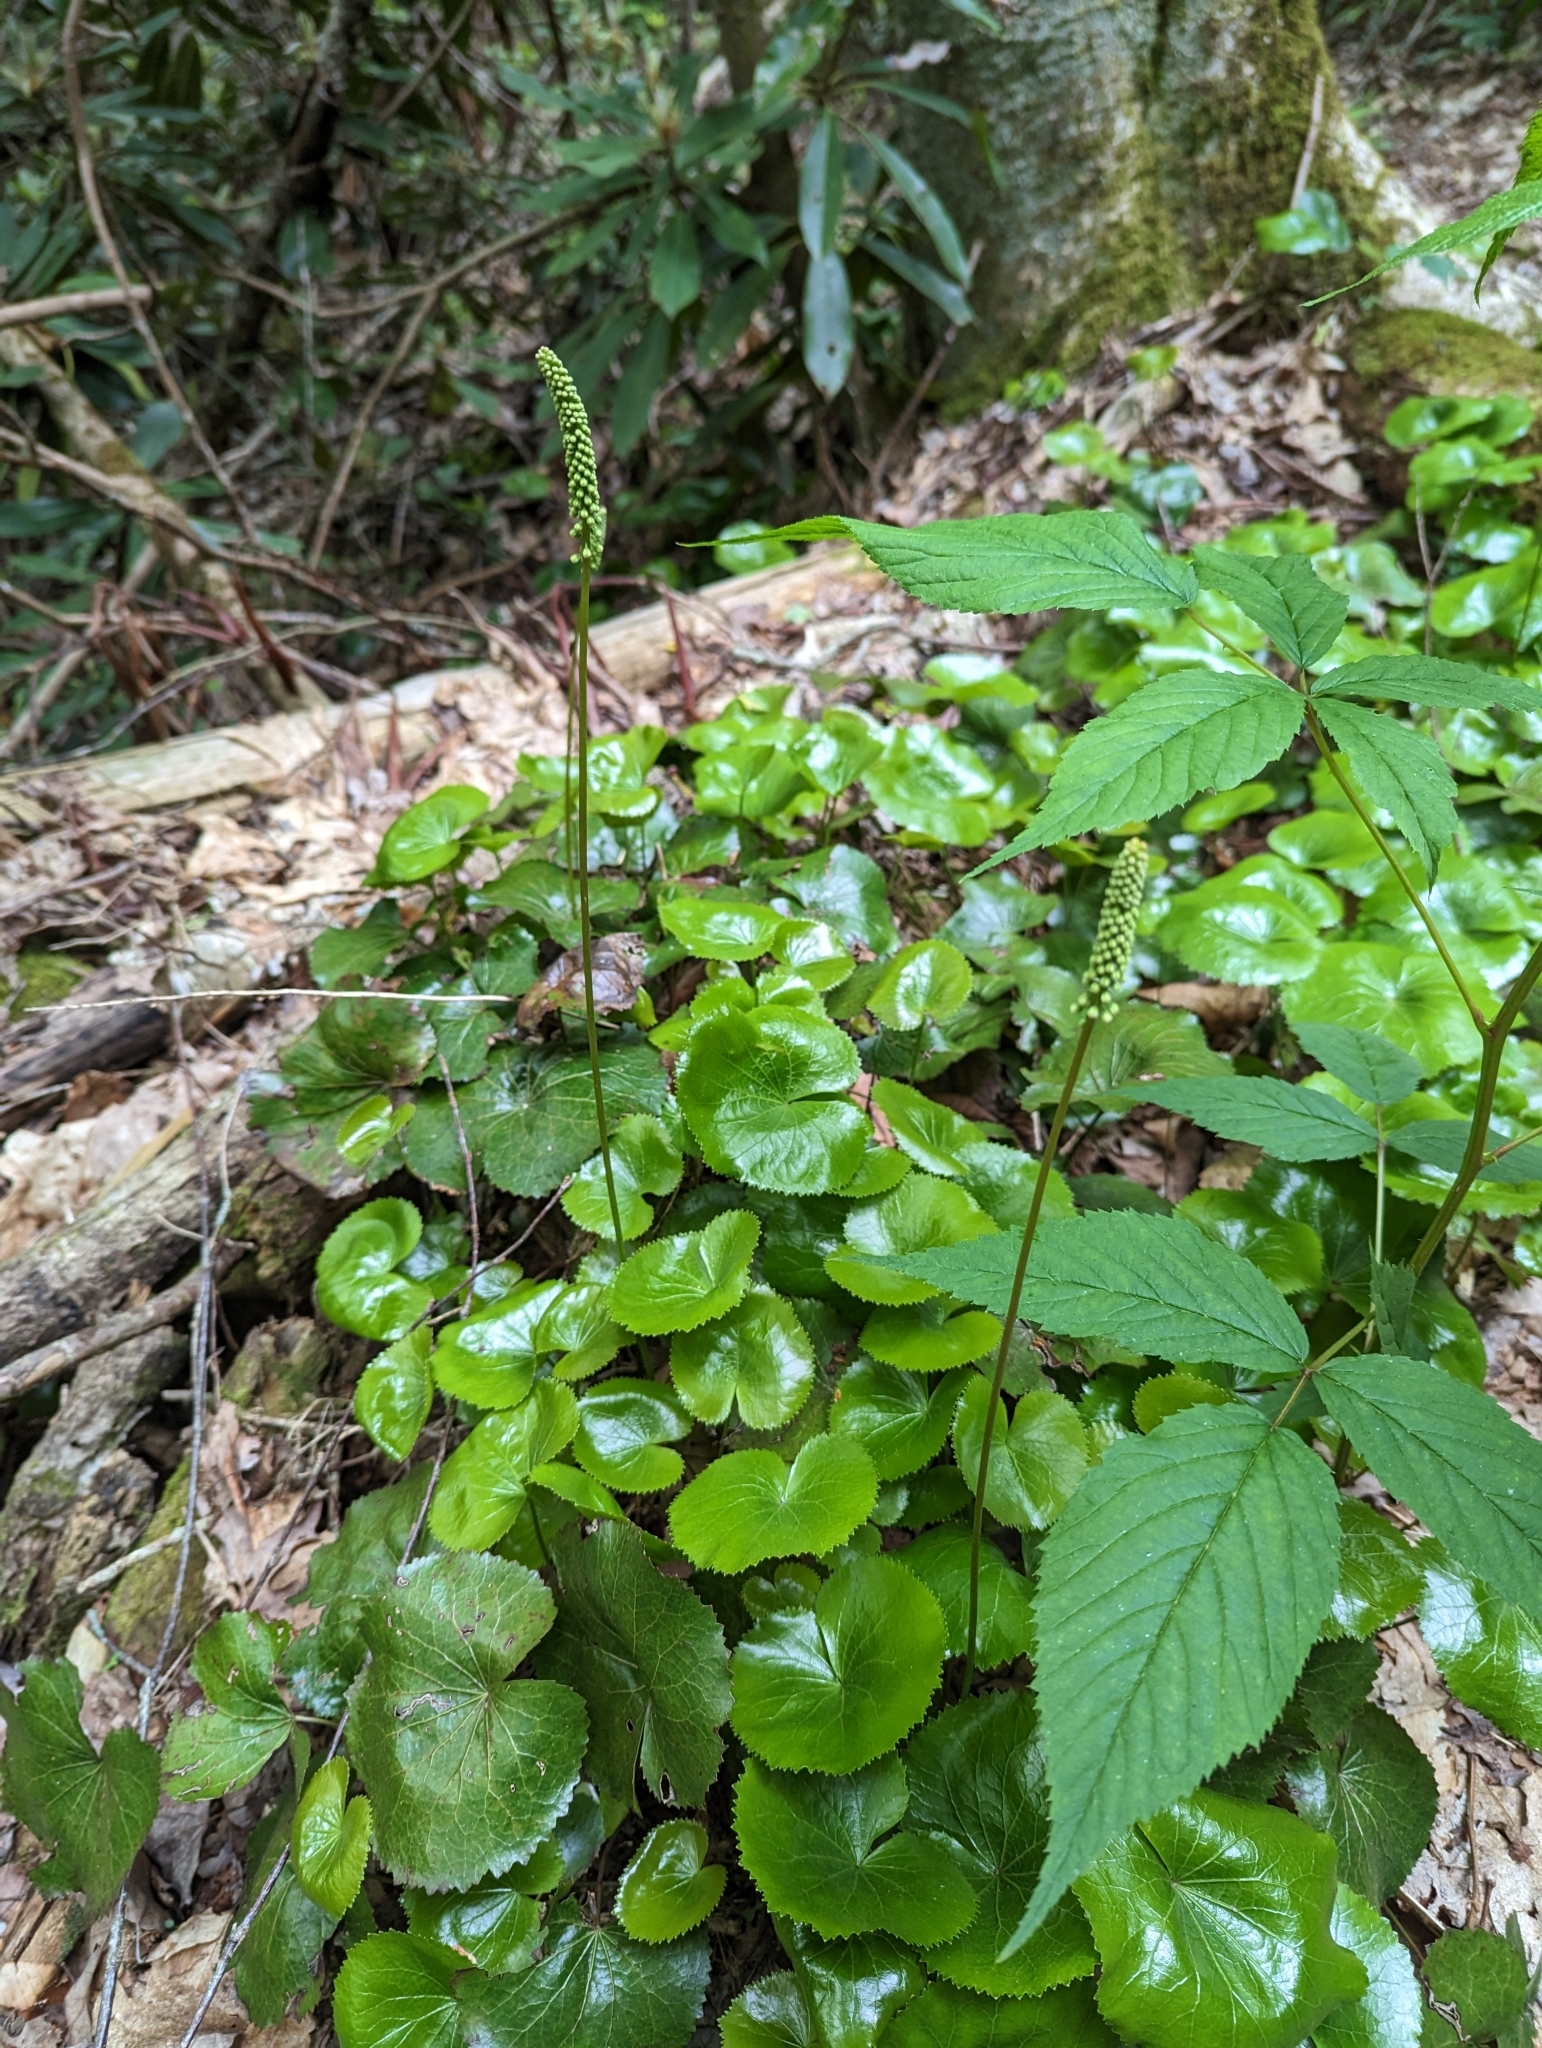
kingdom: Plantae
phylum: Tracheophyta
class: Magnoliopsida
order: Ericales
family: Diapensiaceae
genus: Galax
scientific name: Galax urceolata
